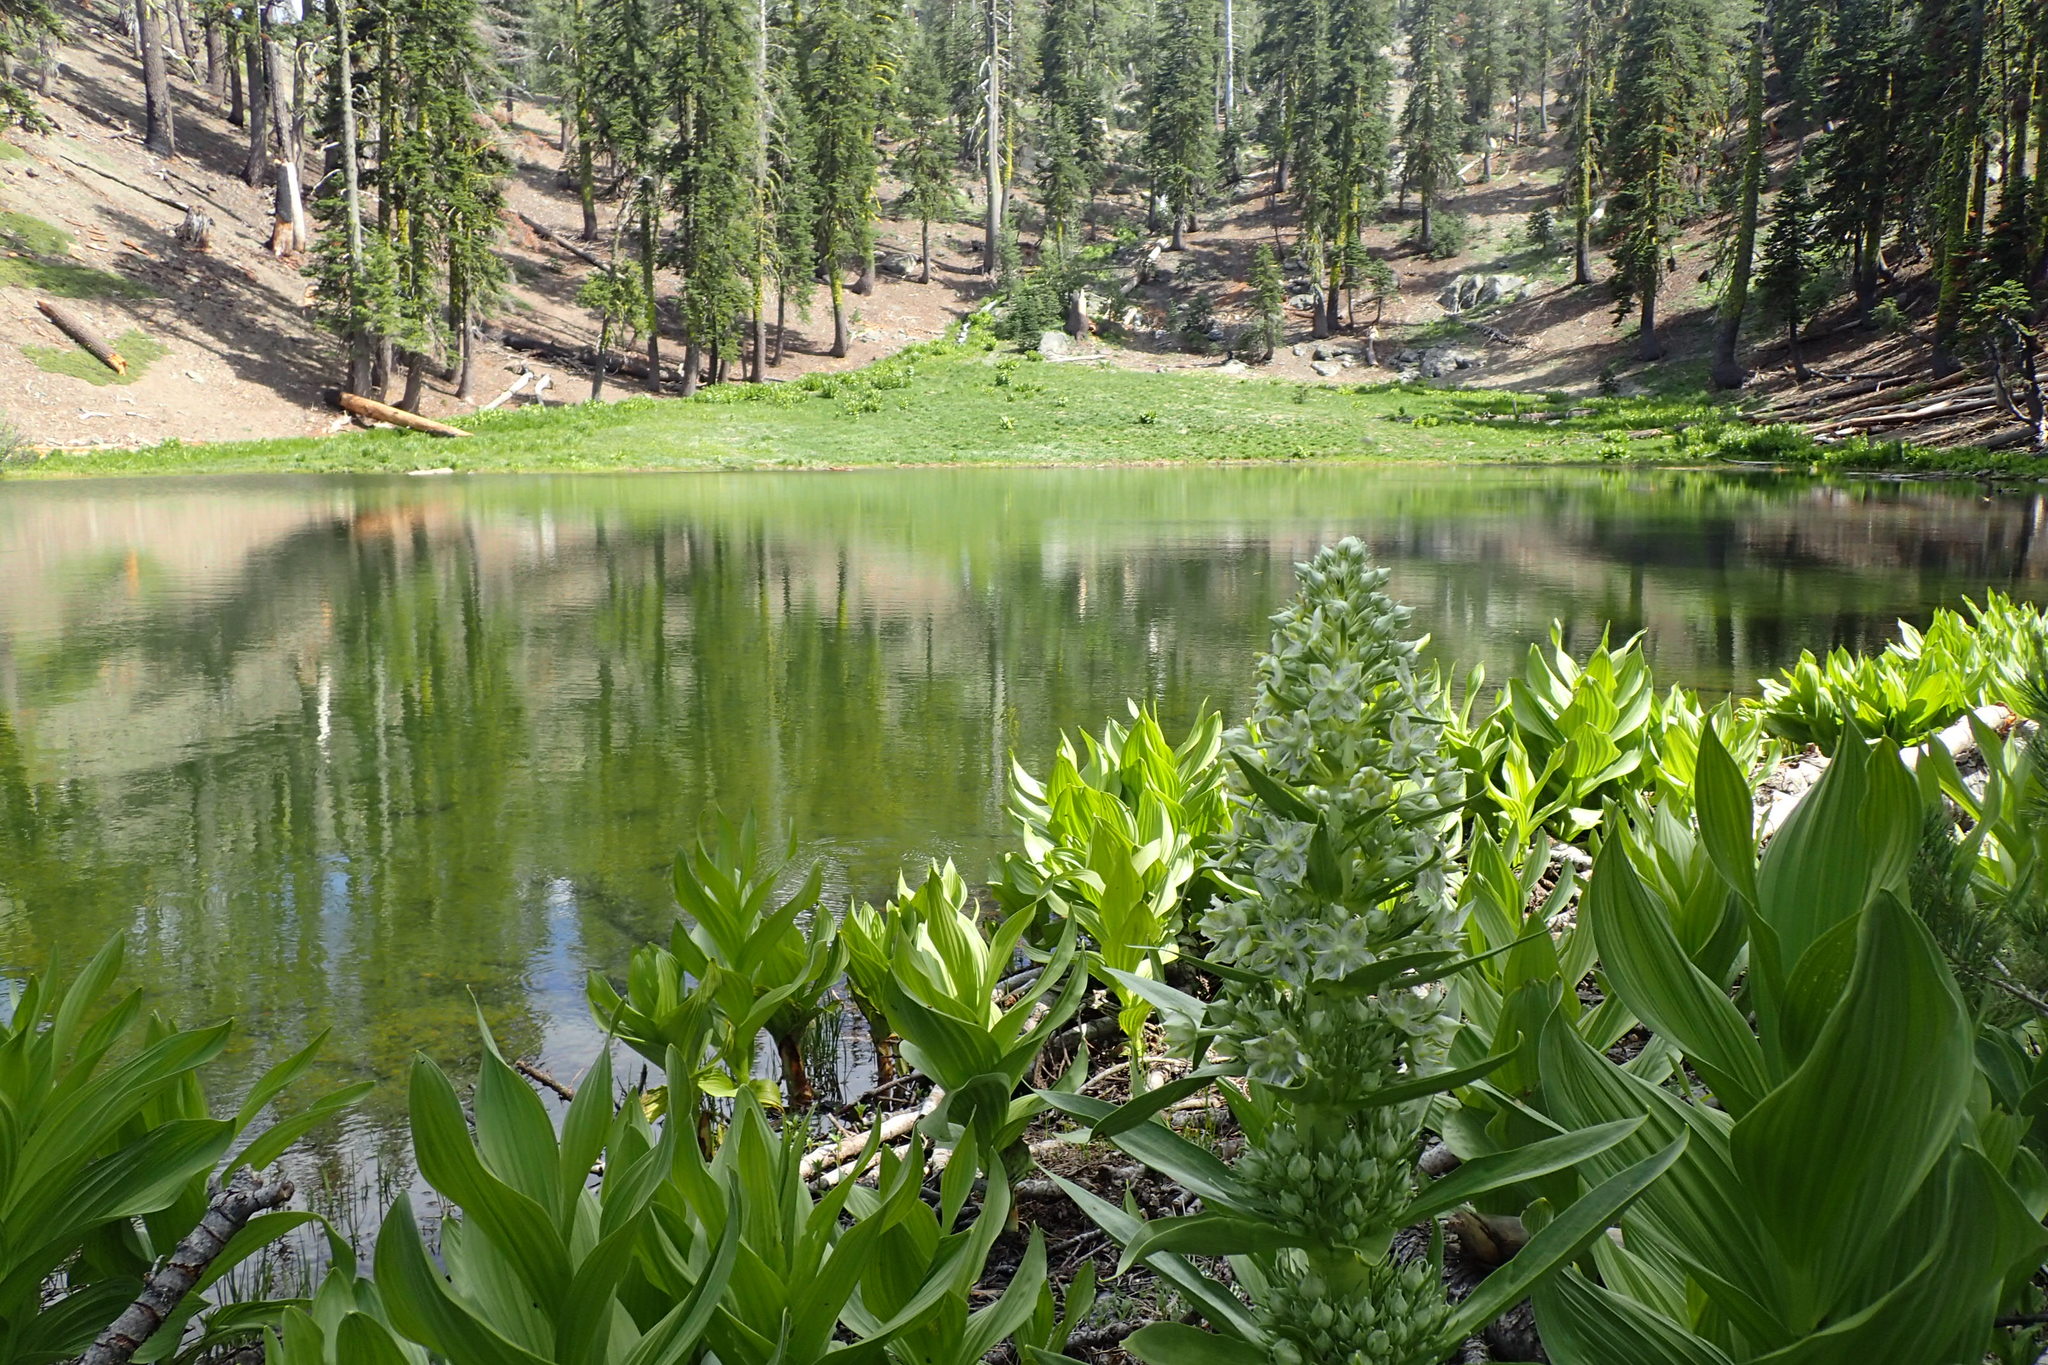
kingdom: Plantae
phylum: Tracheophyta
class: Magnoliopsida
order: Gentianales
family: Gentianaceae
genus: Frasera
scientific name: Frasera speciosa
